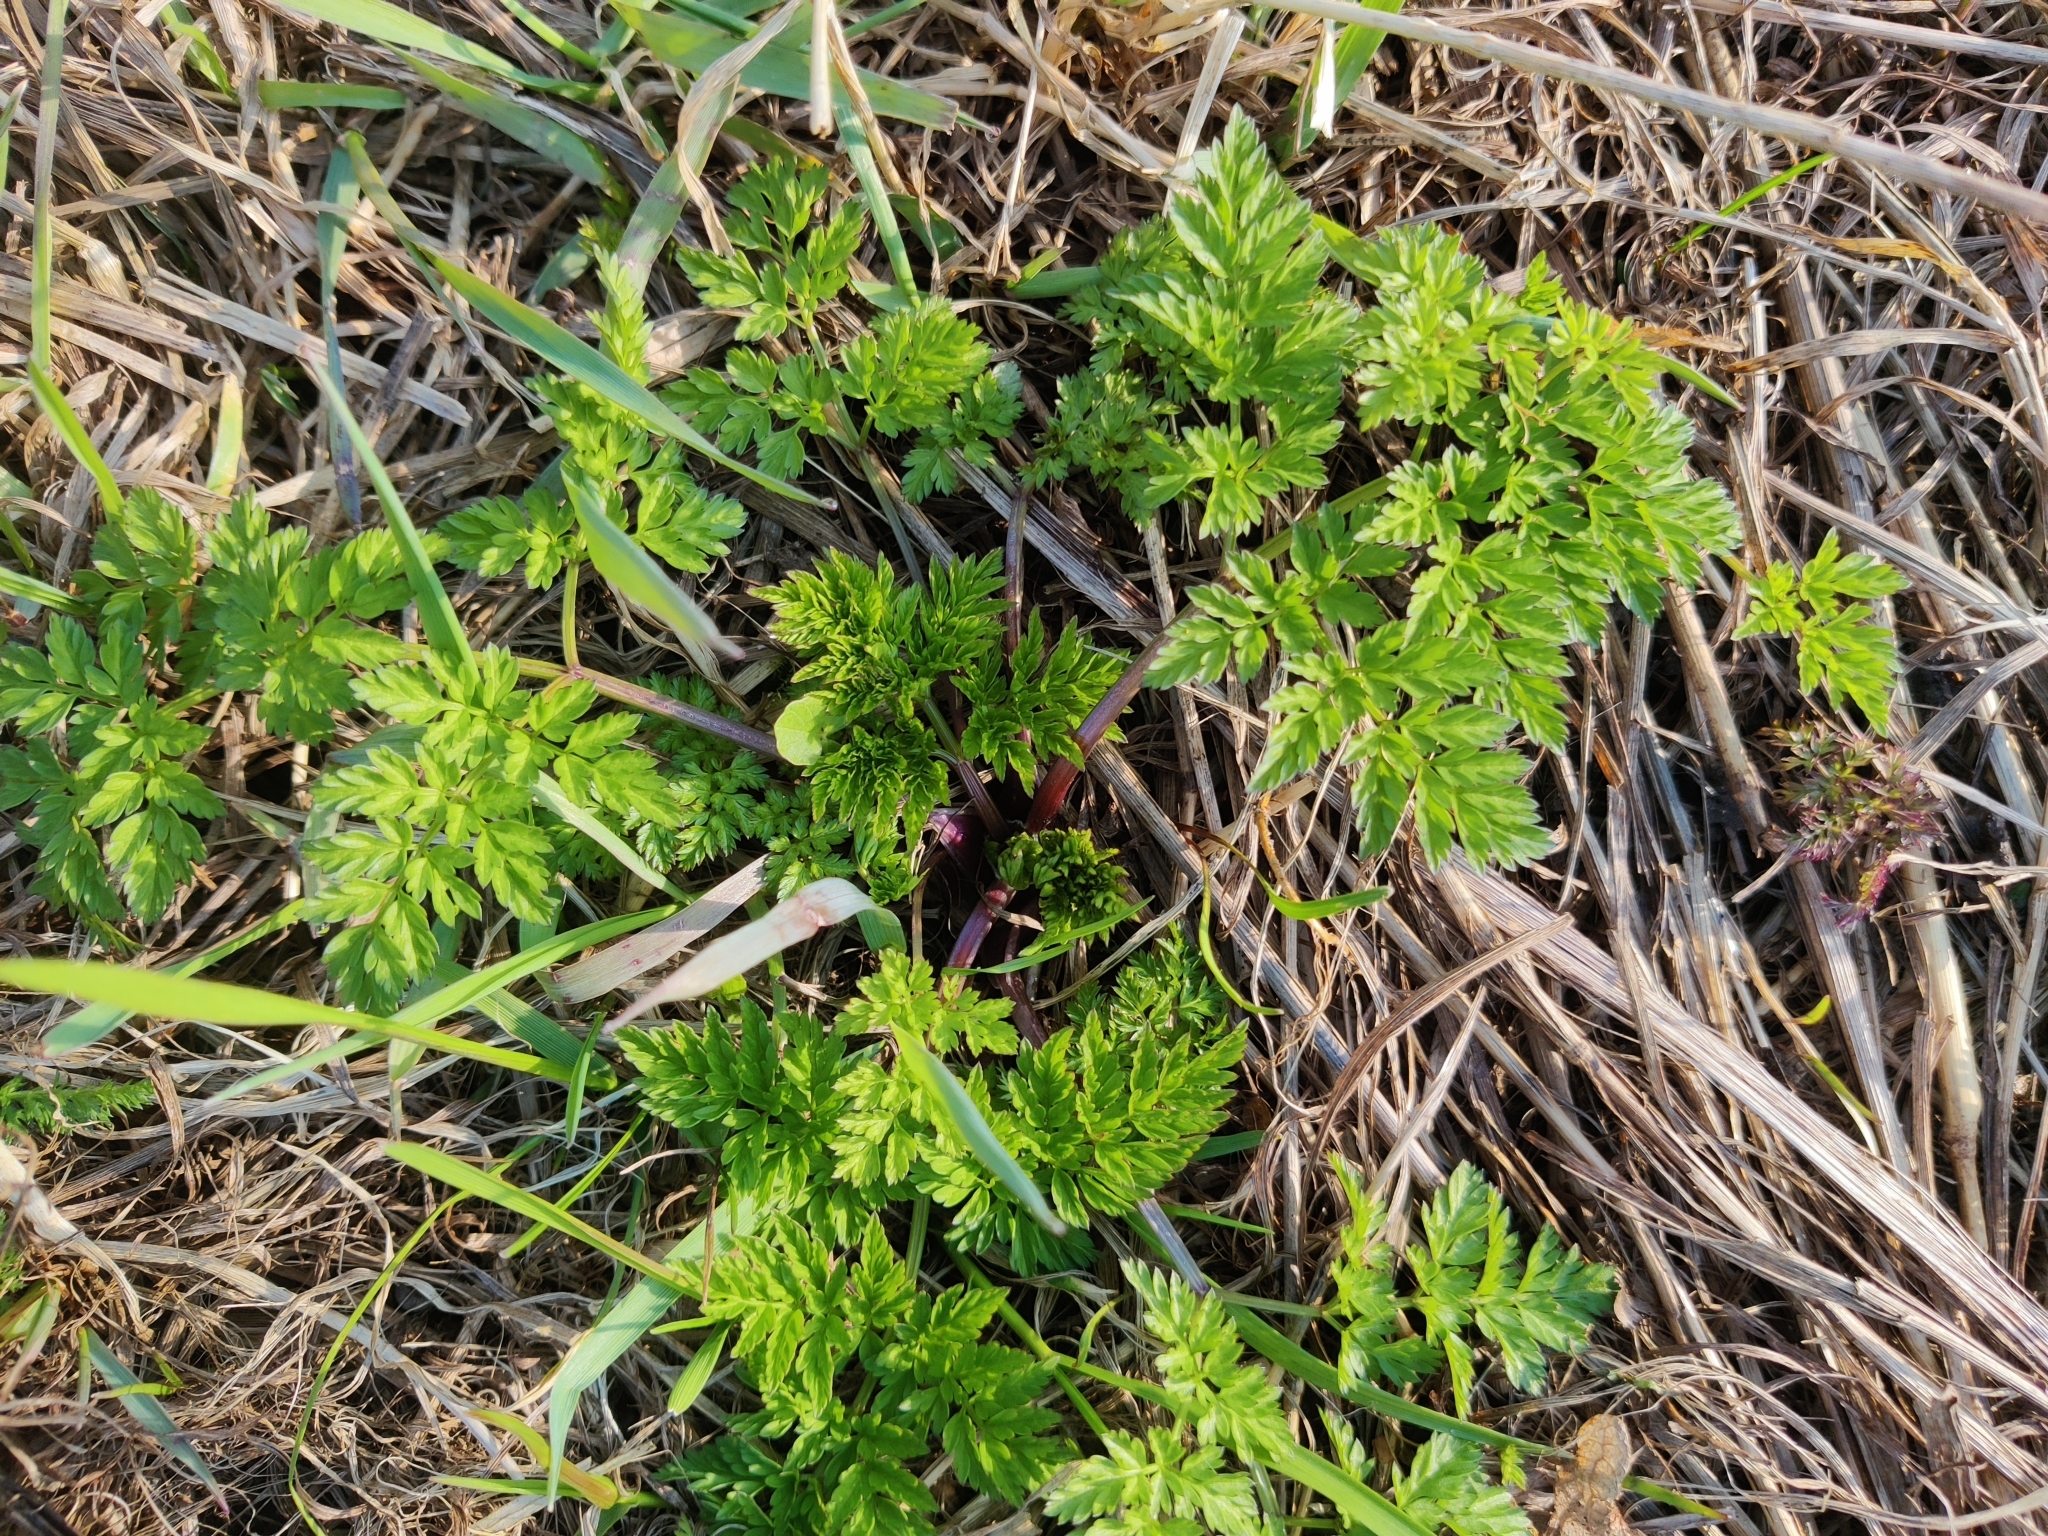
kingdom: Plantae
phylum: Tracheophyta
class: Magnoliopsida
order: Apiales
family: Apiaceae
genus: Anthriscus
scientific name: Anthriscus sylvestris
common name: Cow parsley
